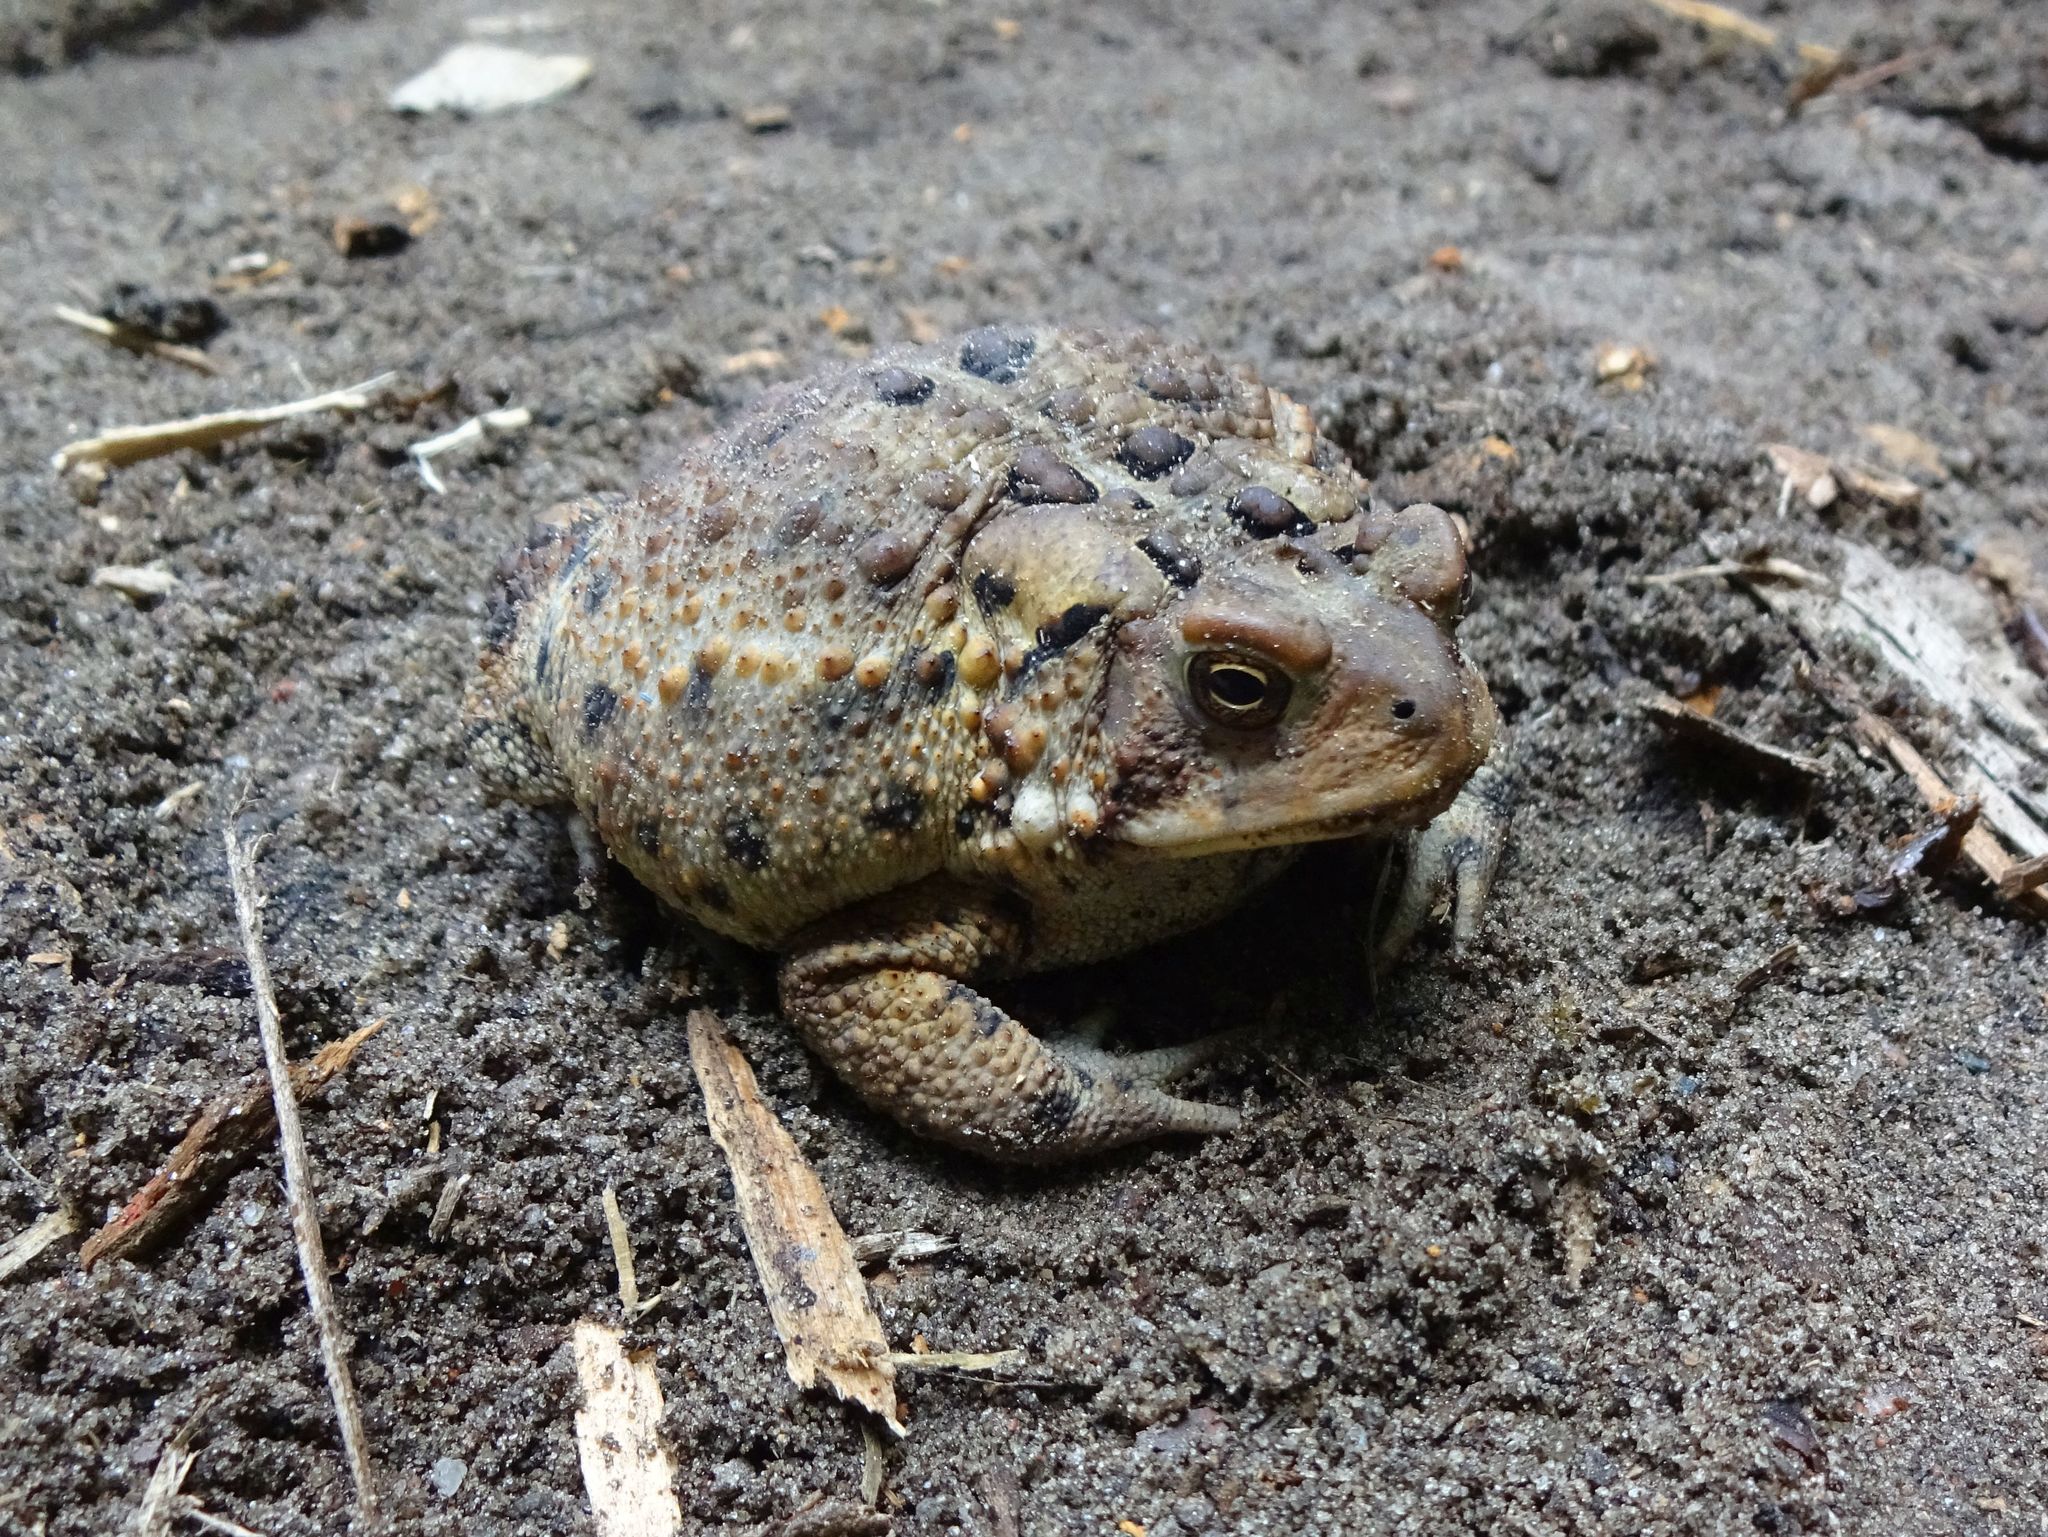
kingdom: Animalia
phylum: Chordata
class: Amphibia
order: Anura
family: Bufonidae
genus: Anaxyrus
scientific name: Anaxyrus americanus
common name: American toad
